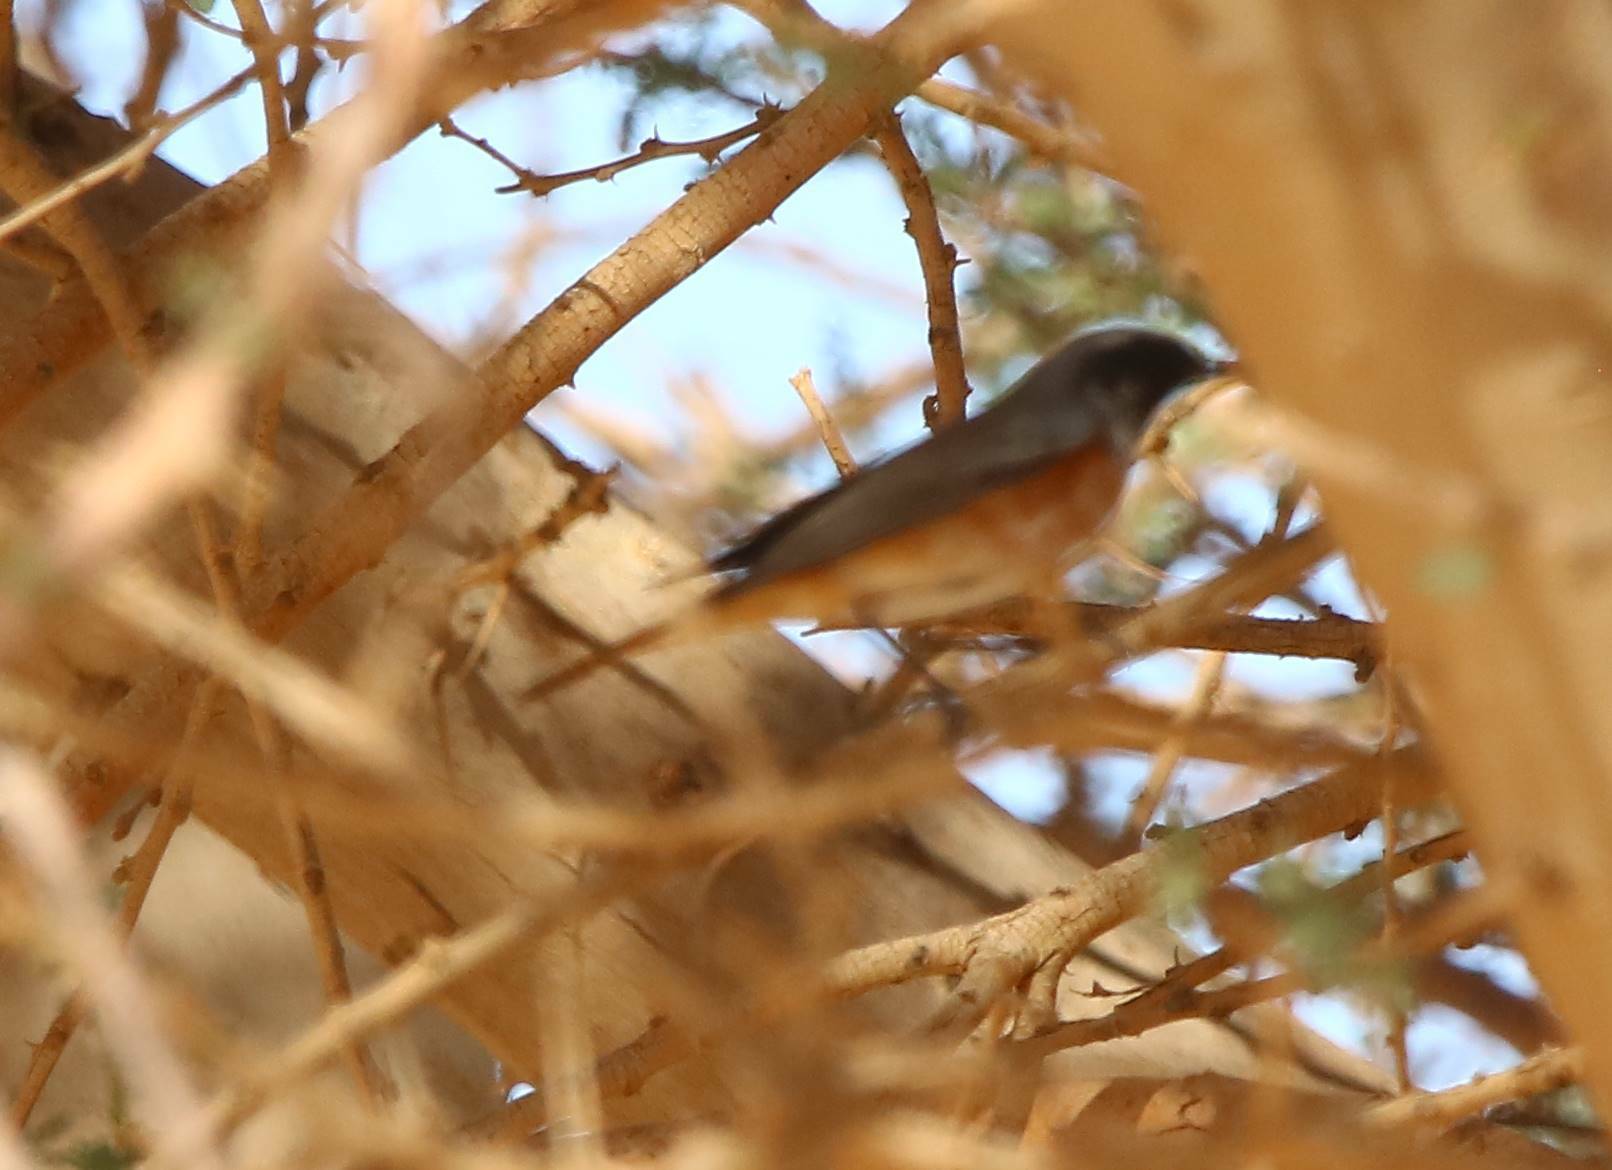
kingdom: Animalia
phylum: Chordata
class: Aves
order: Passeriformes
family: Muscicapidae
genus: Phoenicurus
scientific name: Phoenicurus phoenicurus
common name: Common redstart
